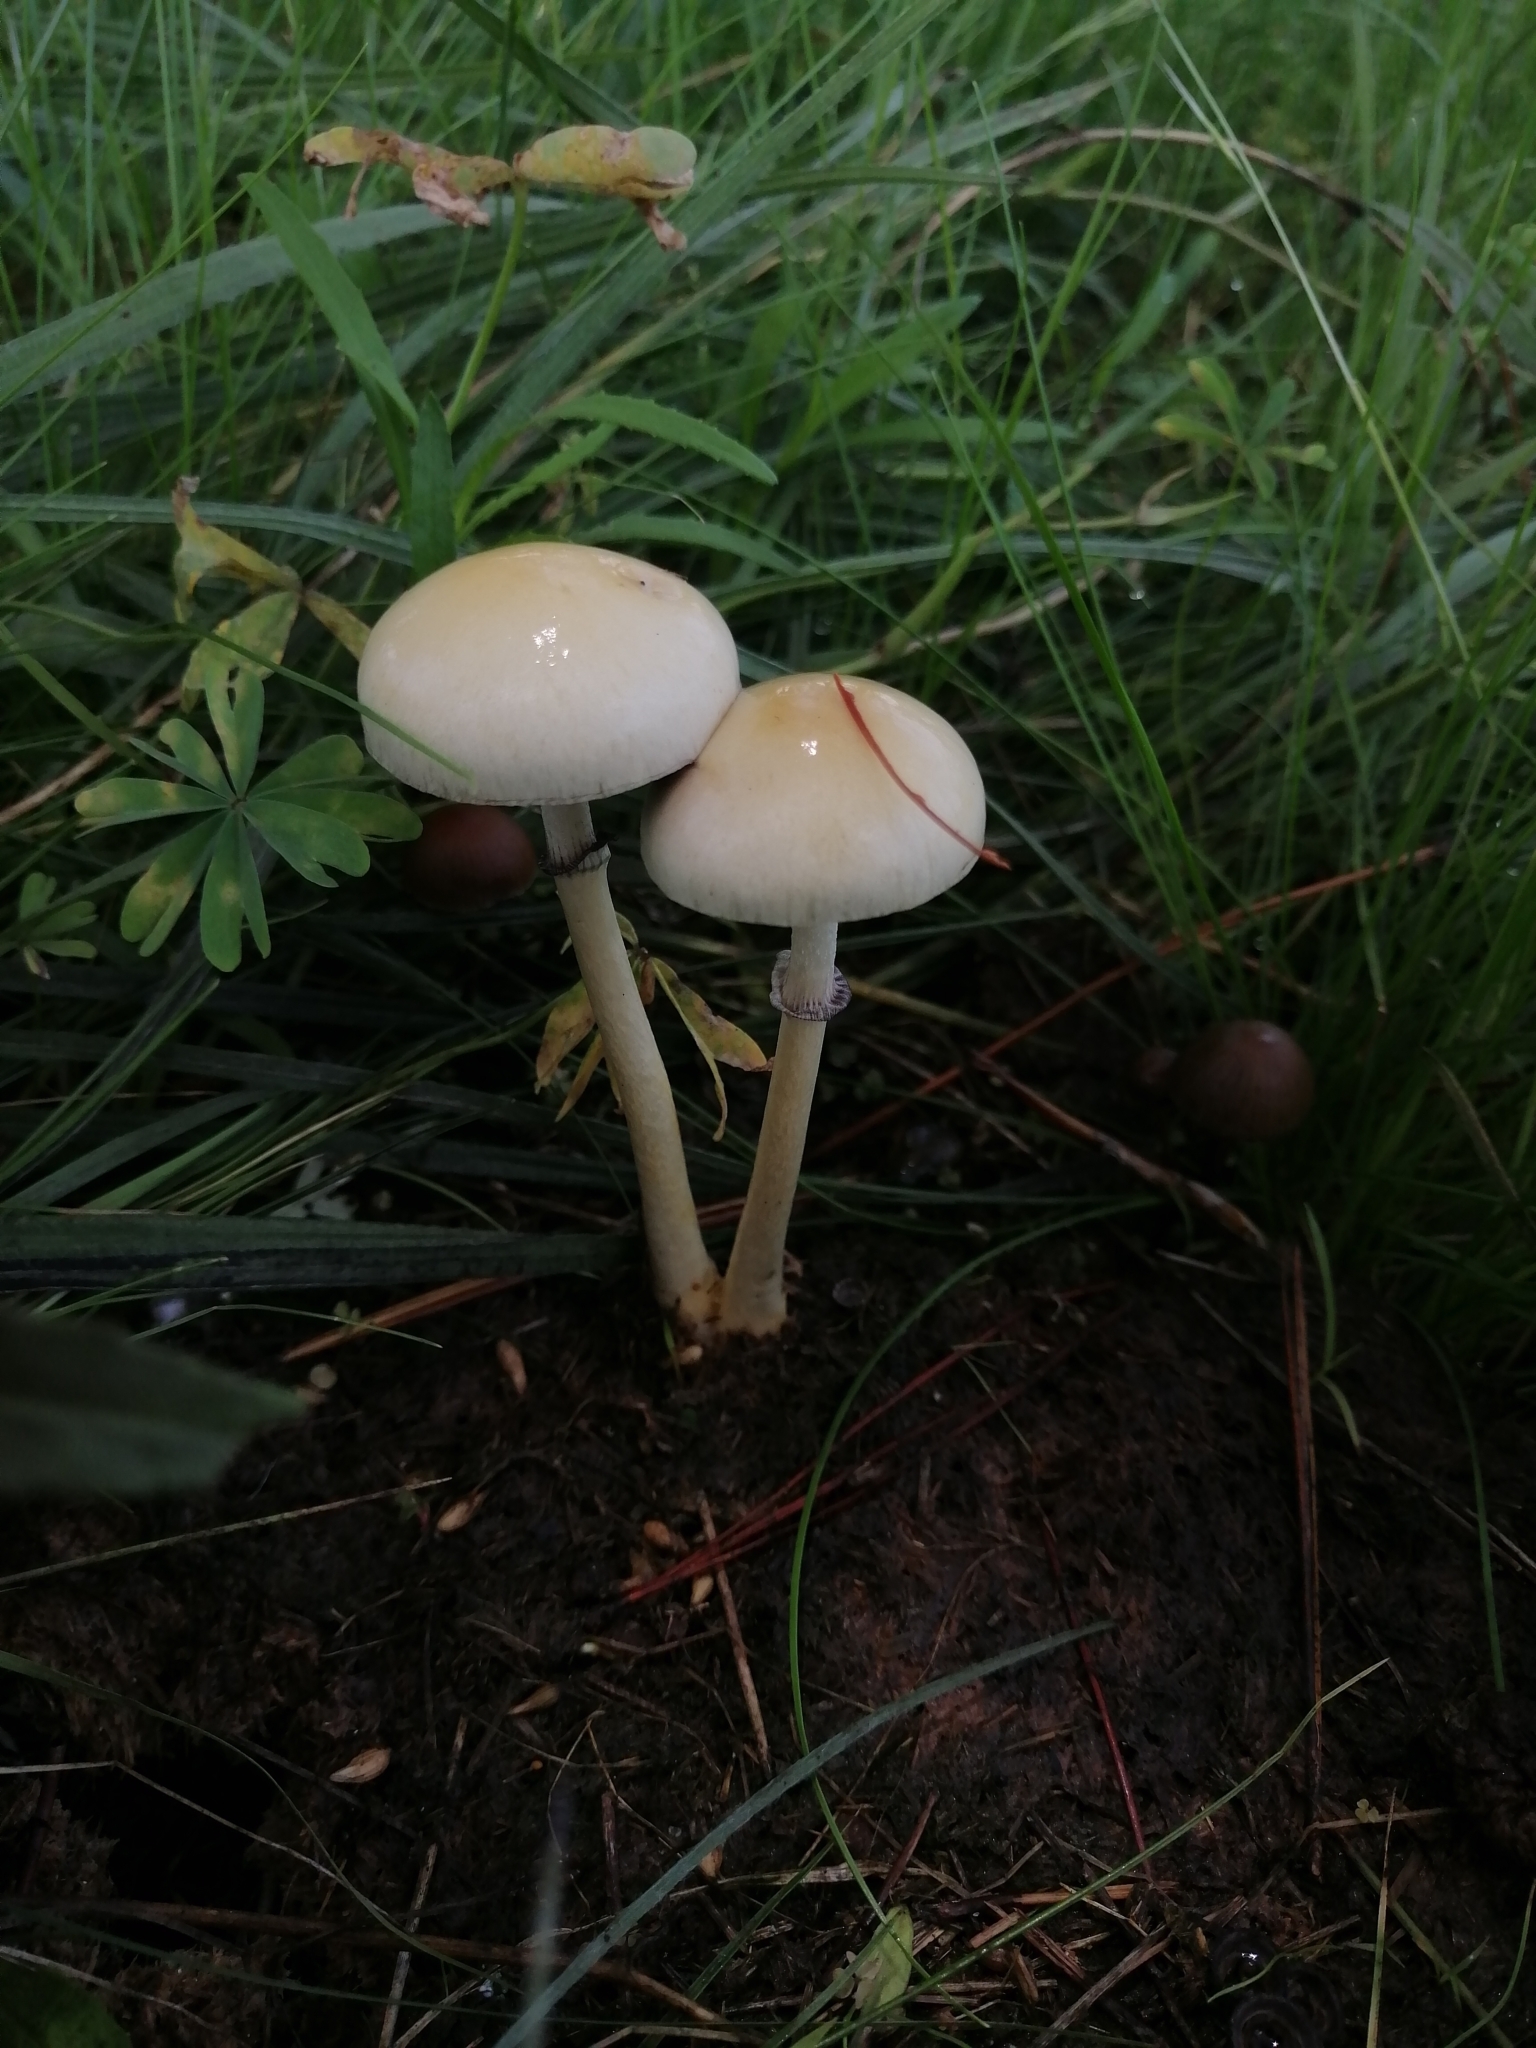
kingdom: Fungi
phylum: Basidiomycota
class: Agaricomycetes
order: Agaricales
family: Strophariaceae
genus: Protostropharia
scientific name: Protostropharia semiglobata
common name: Dung roundhead
